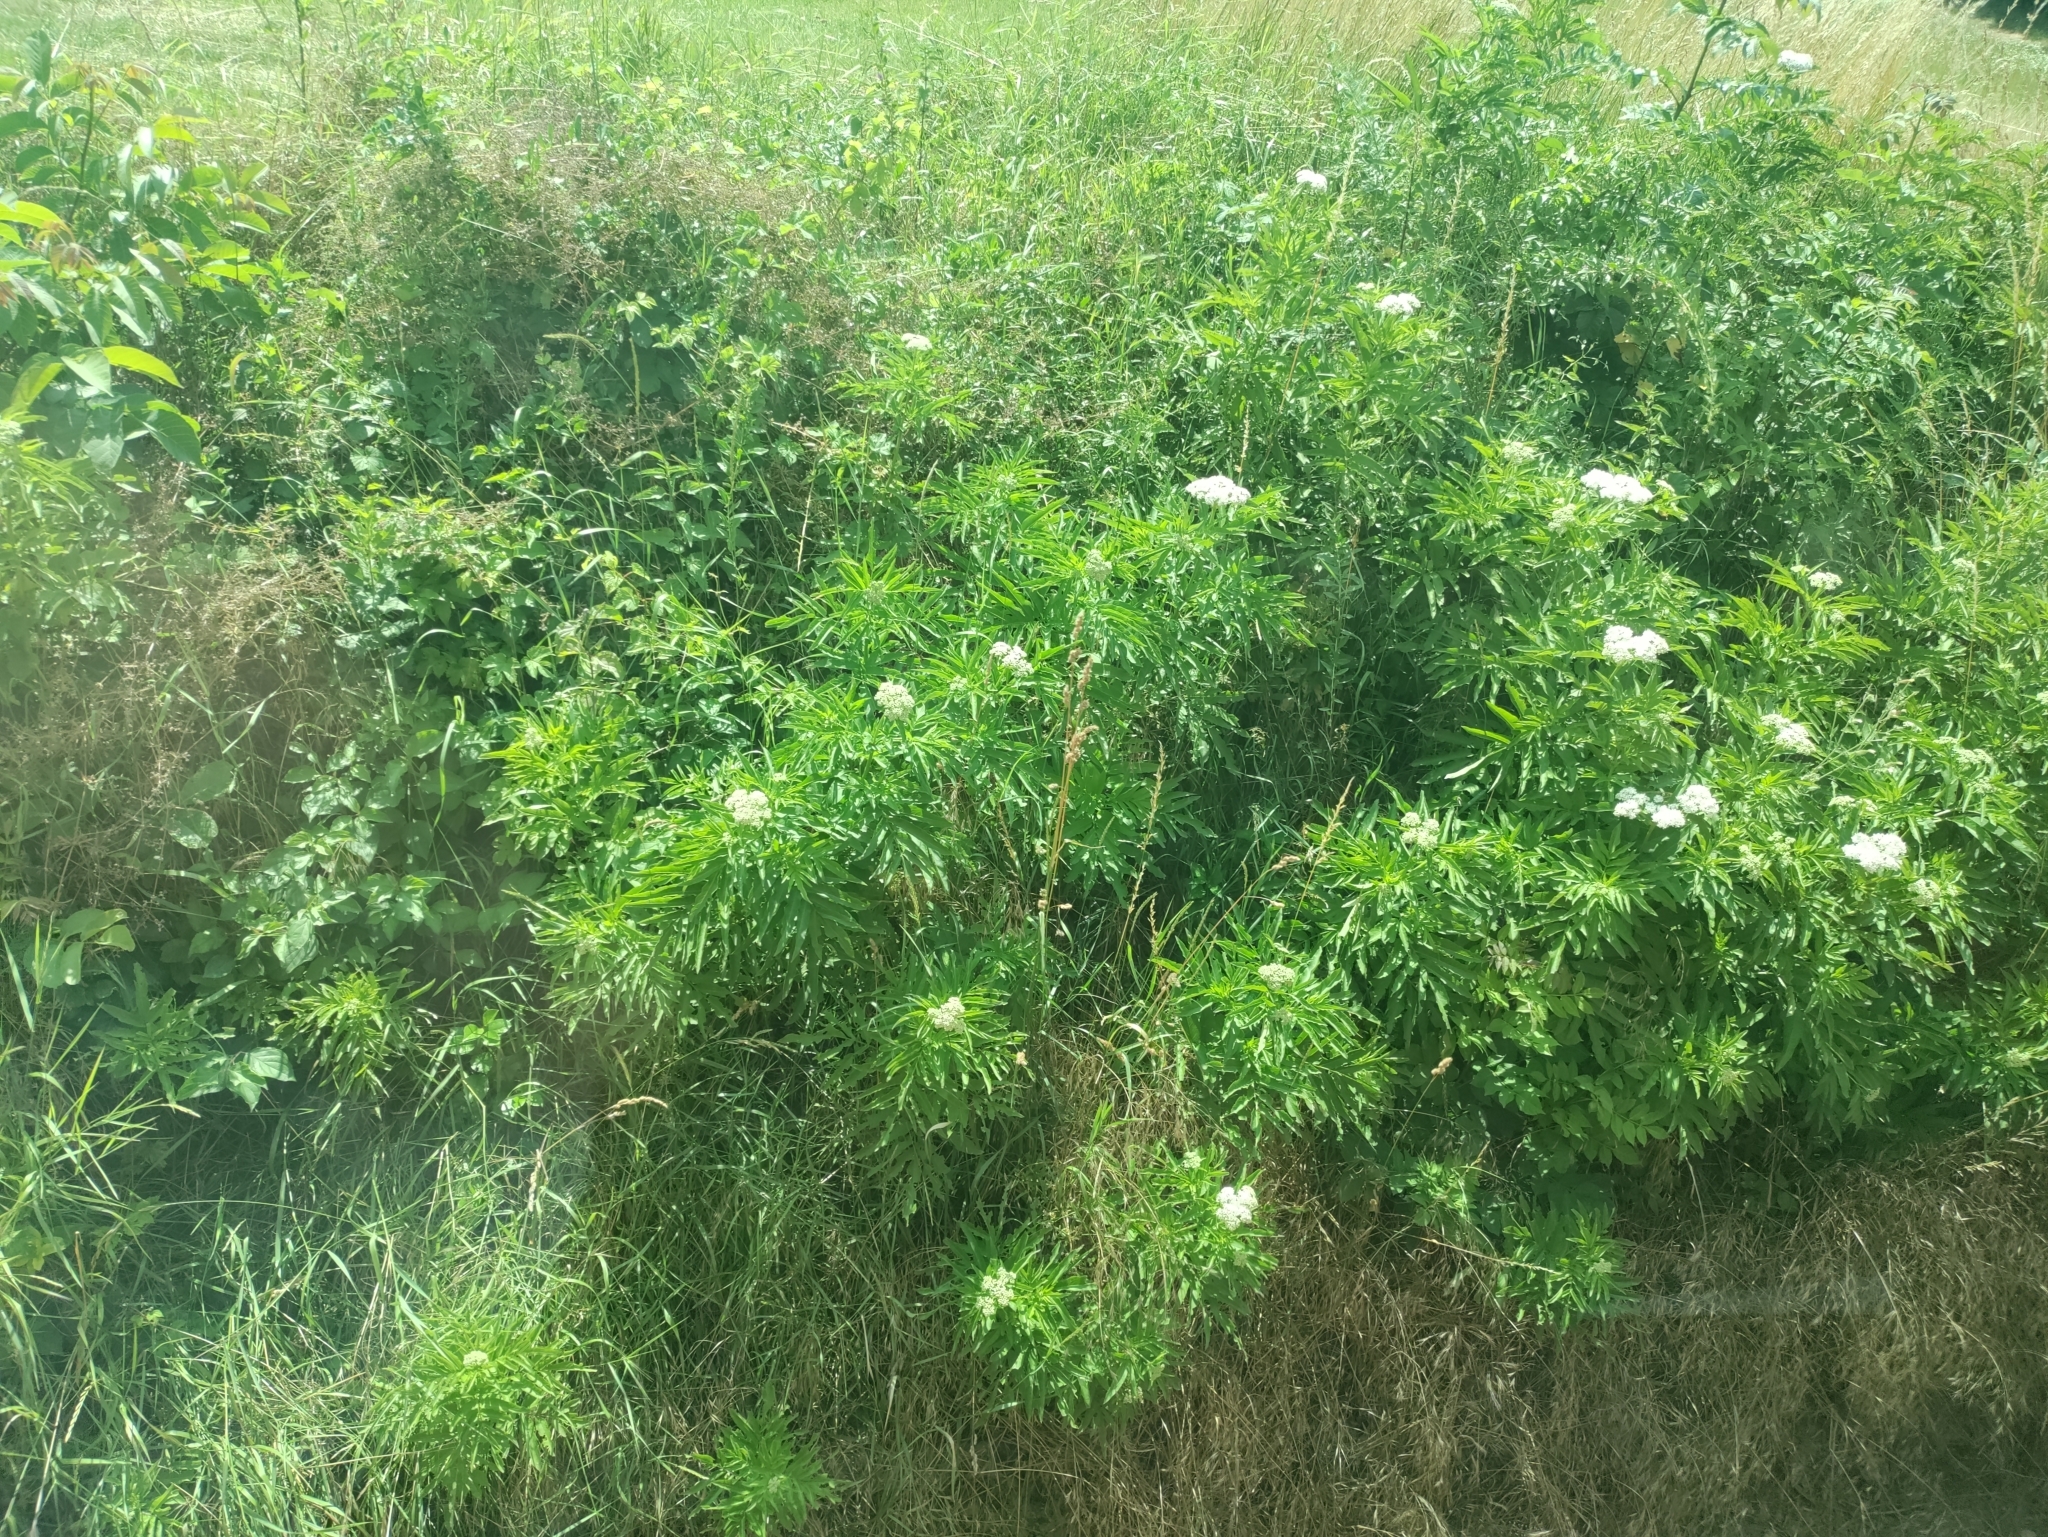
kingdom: Plantae
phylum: Tracheophyta
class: Magnoliopsida
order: Dipsacales
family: Viburnaceae
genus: Sambucus
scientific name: Sambucus ebulus
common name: Dwarf elder
